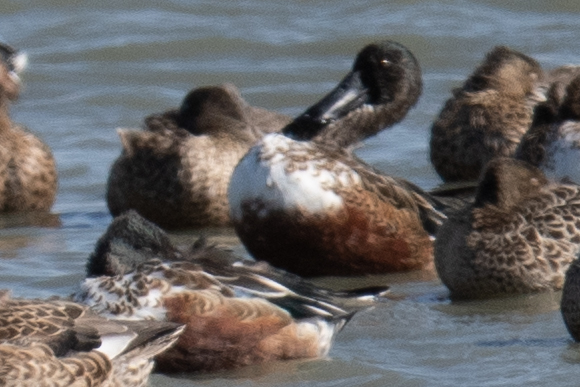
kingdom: Animalia
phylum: Chordata
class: Aves
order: Anseriformes
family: Anatidae
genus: Spatula
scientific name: Spatula clypeata
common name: Northern shoveler
